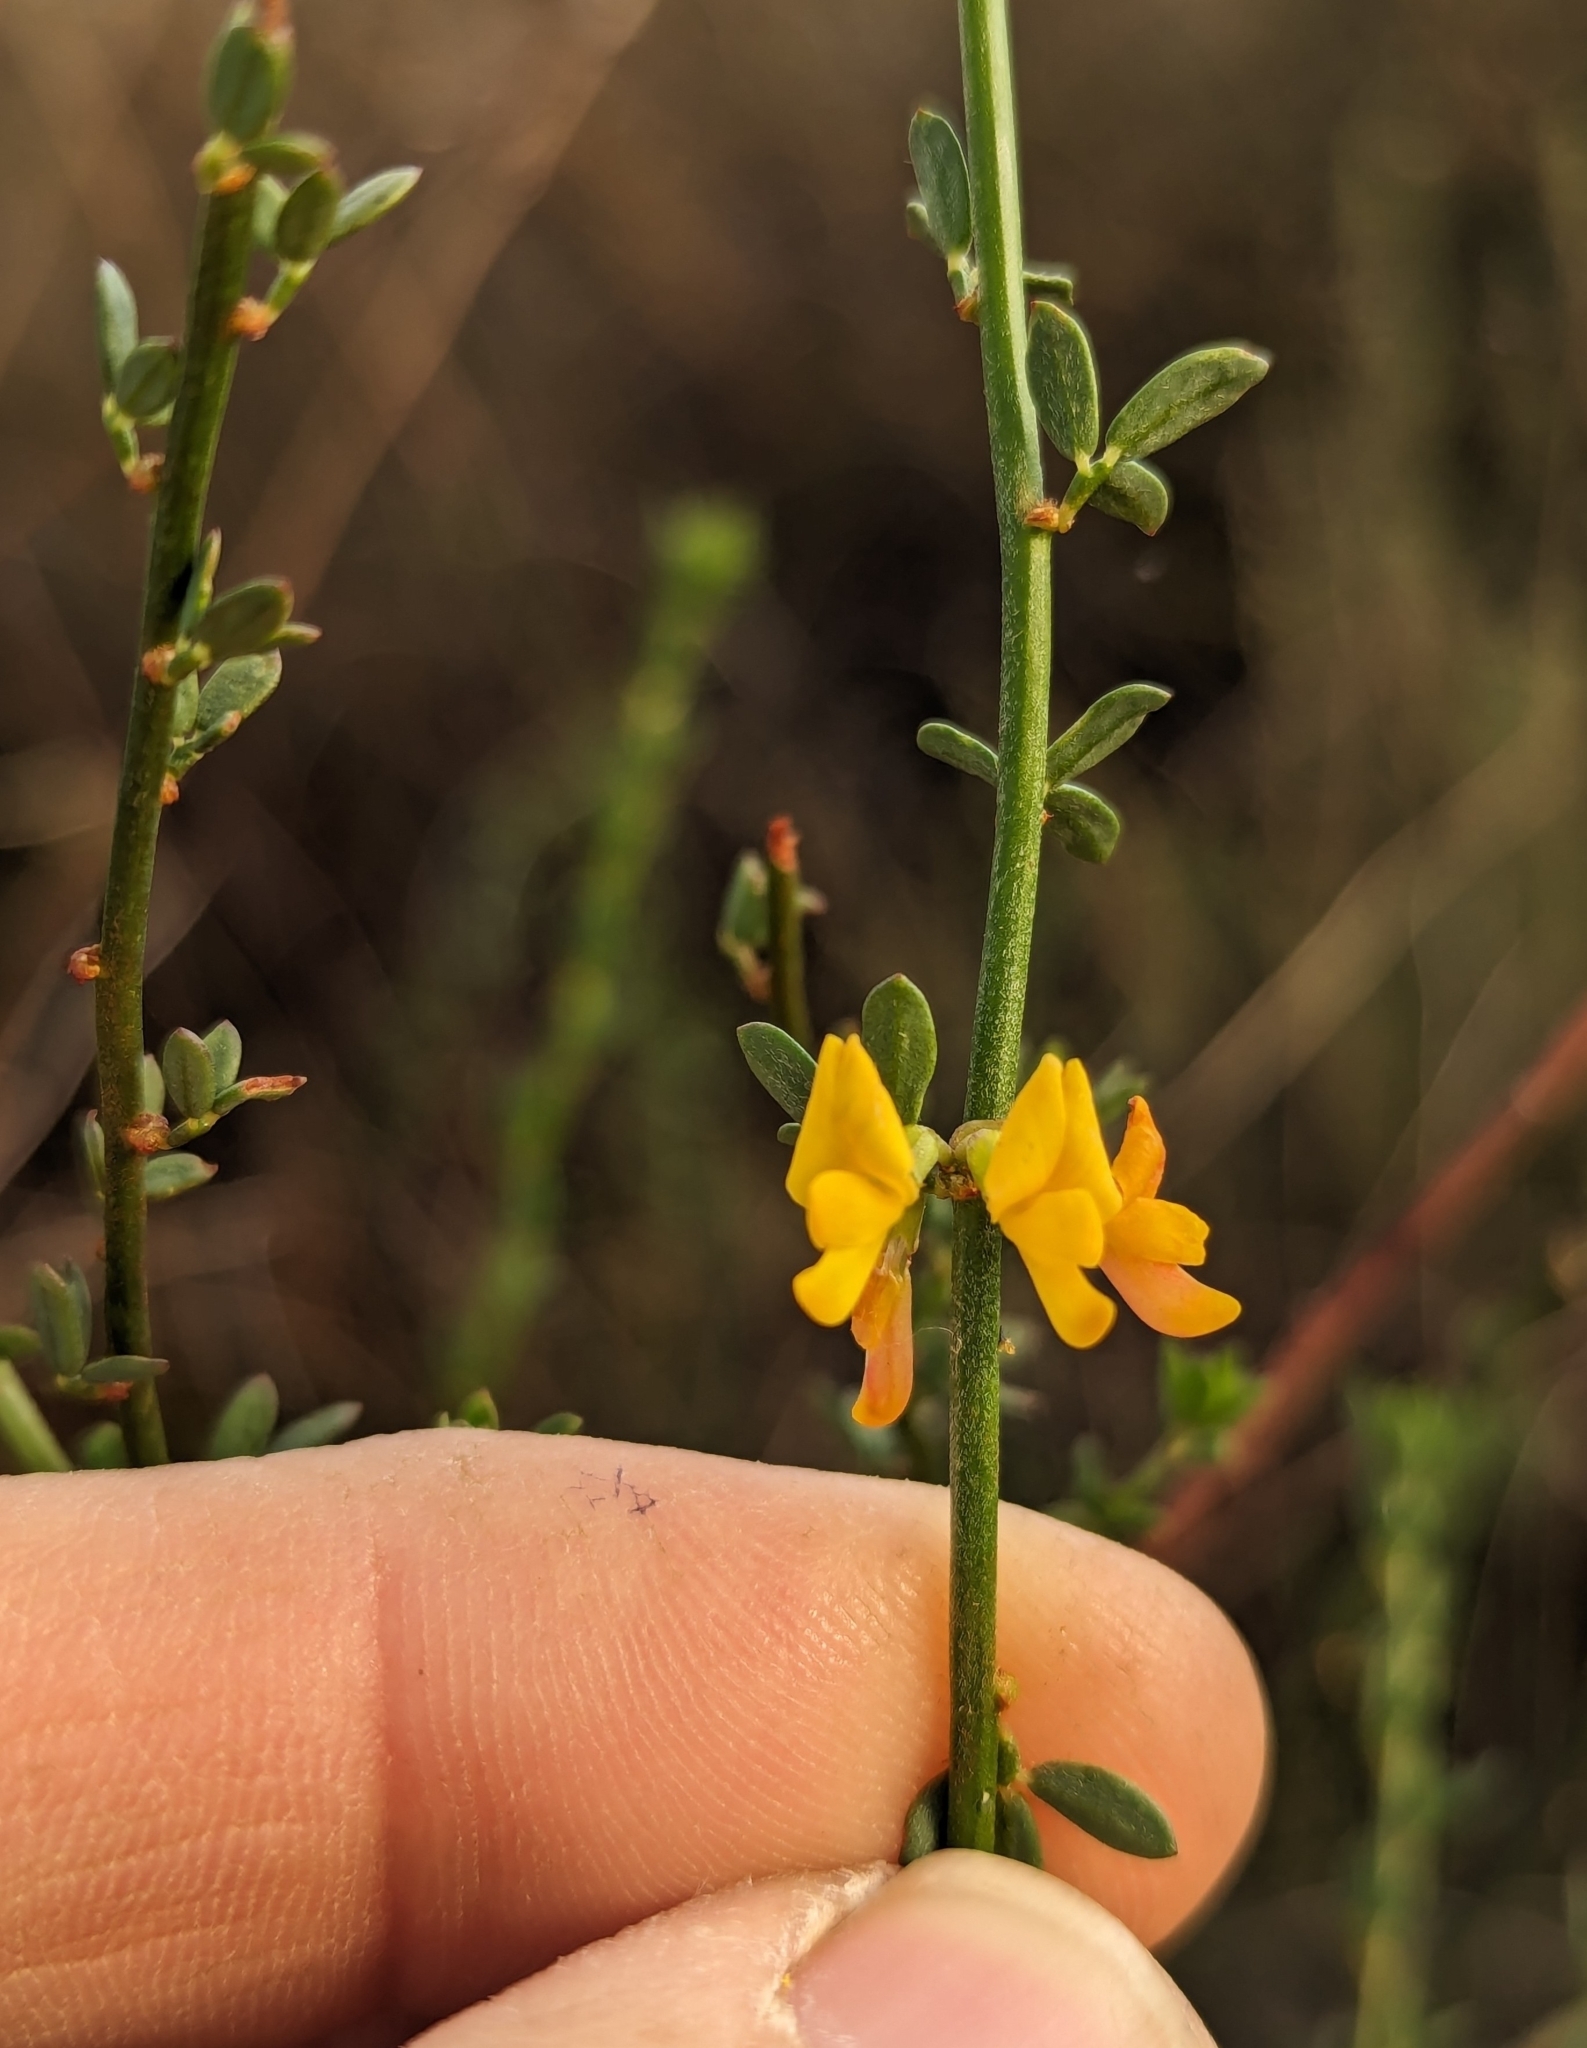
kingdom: Plantae
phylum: Tracheophyta
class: Magnoliopsida
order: Fabales
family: Fabaceae
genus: Acmispon
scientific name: Acmispon glaber
